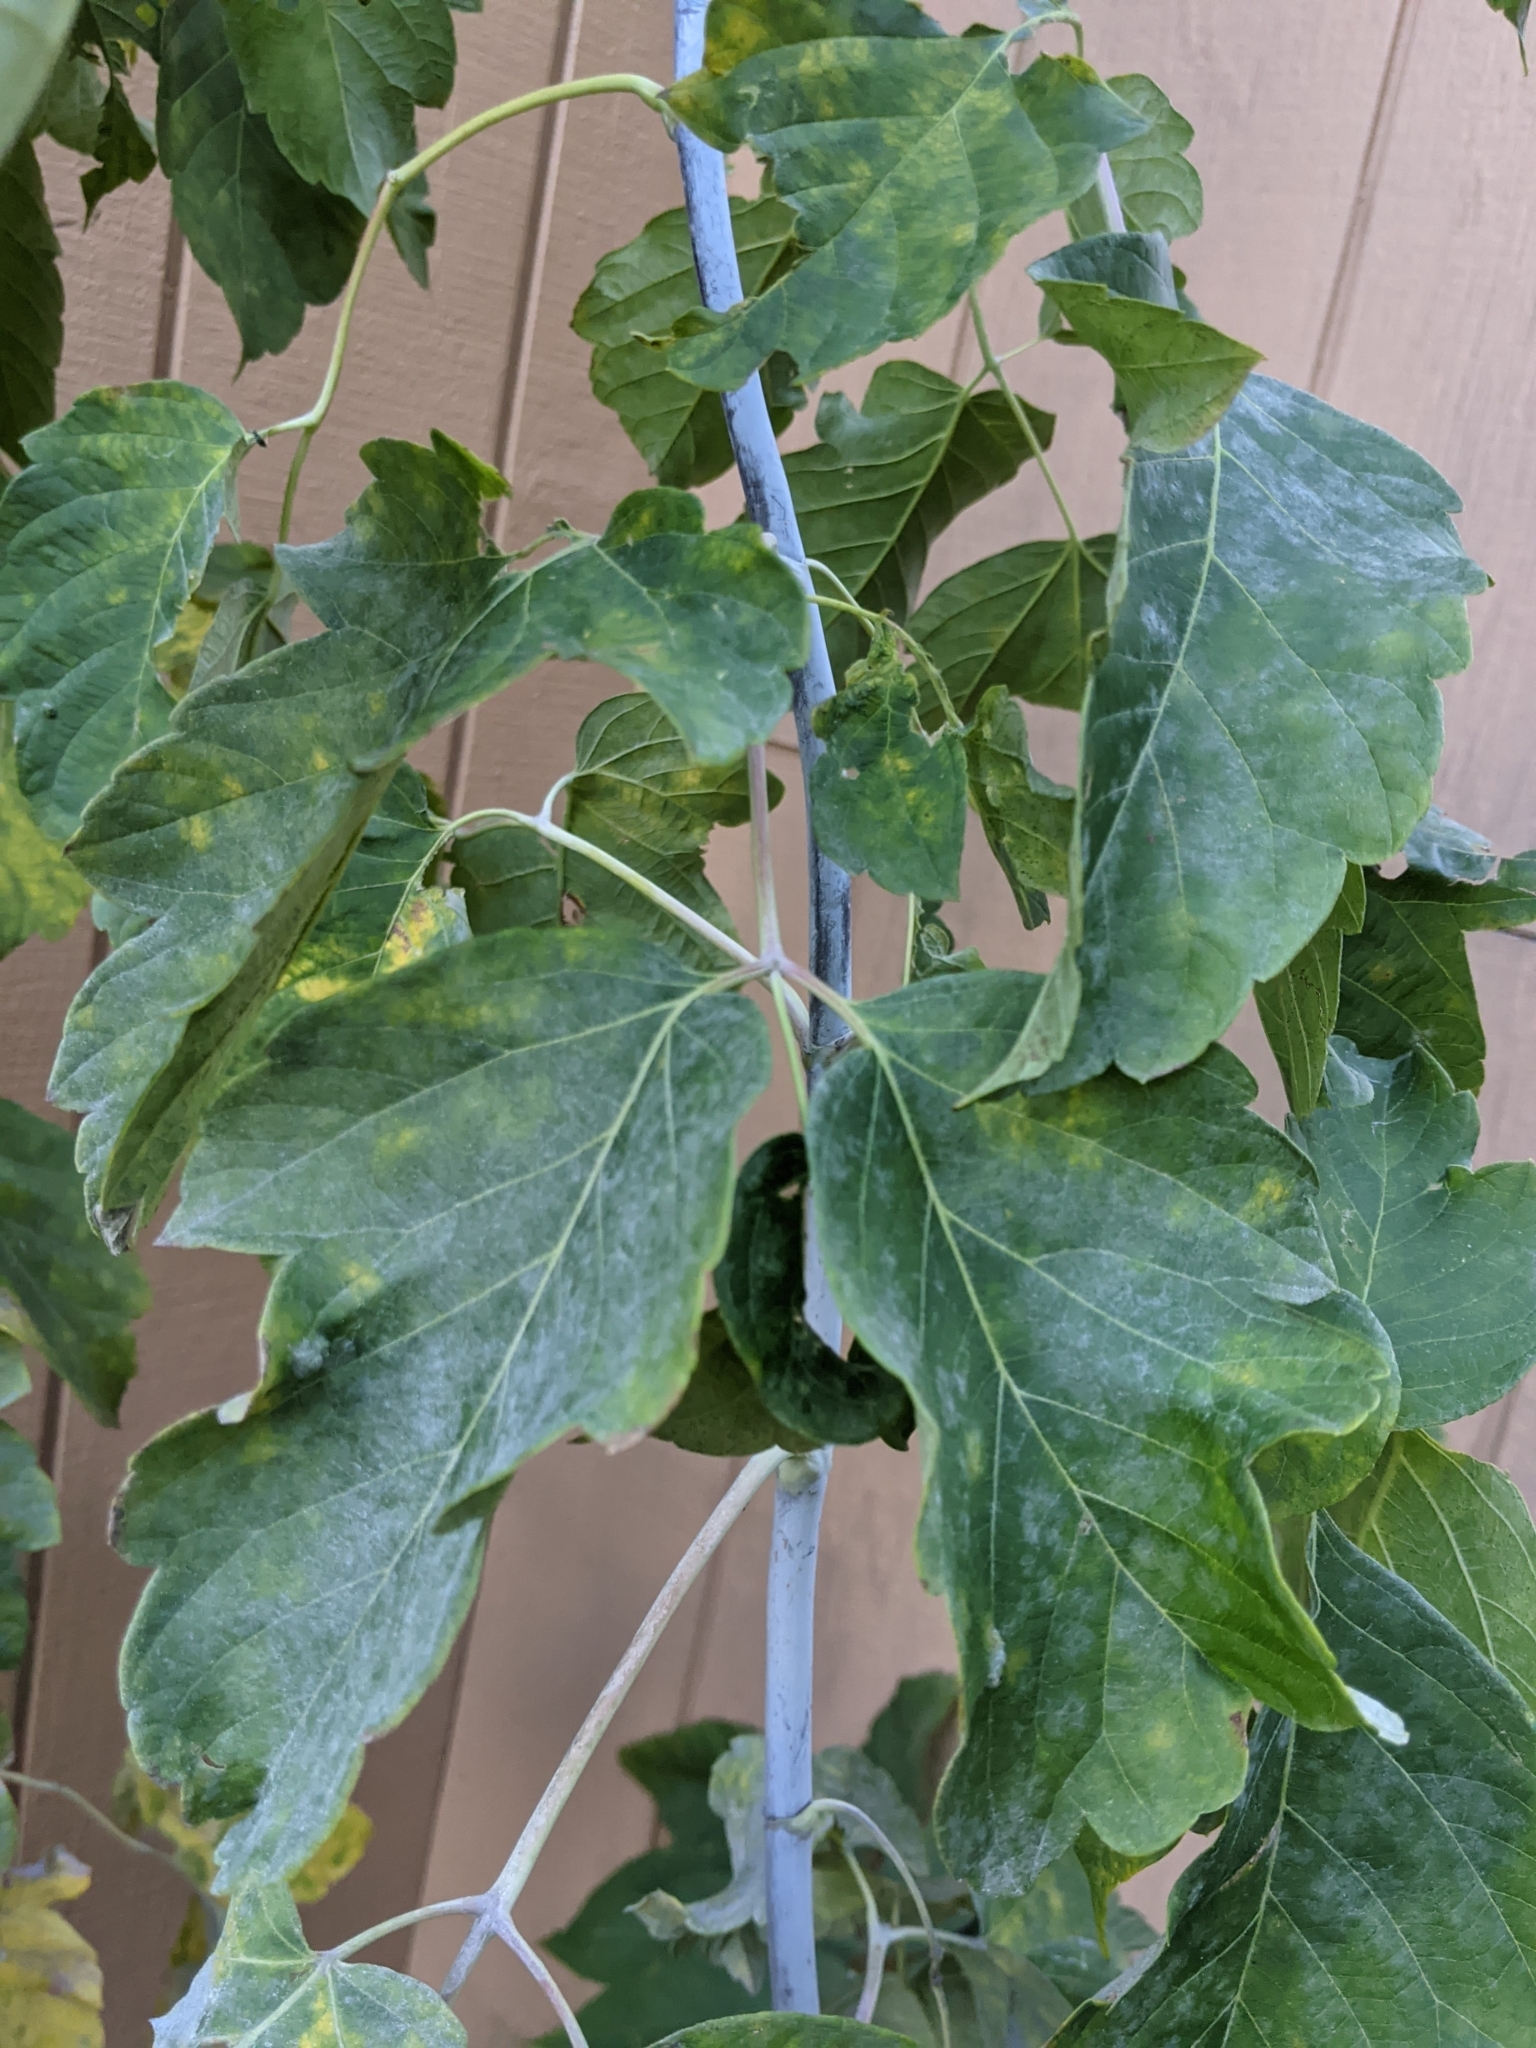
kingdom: Plantae
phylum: Tracheophyta
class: Magnoliopsida
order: Sapindales
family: Sapindaceae
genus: Acer
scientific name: Acer negundo
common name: Ashleaf maple
